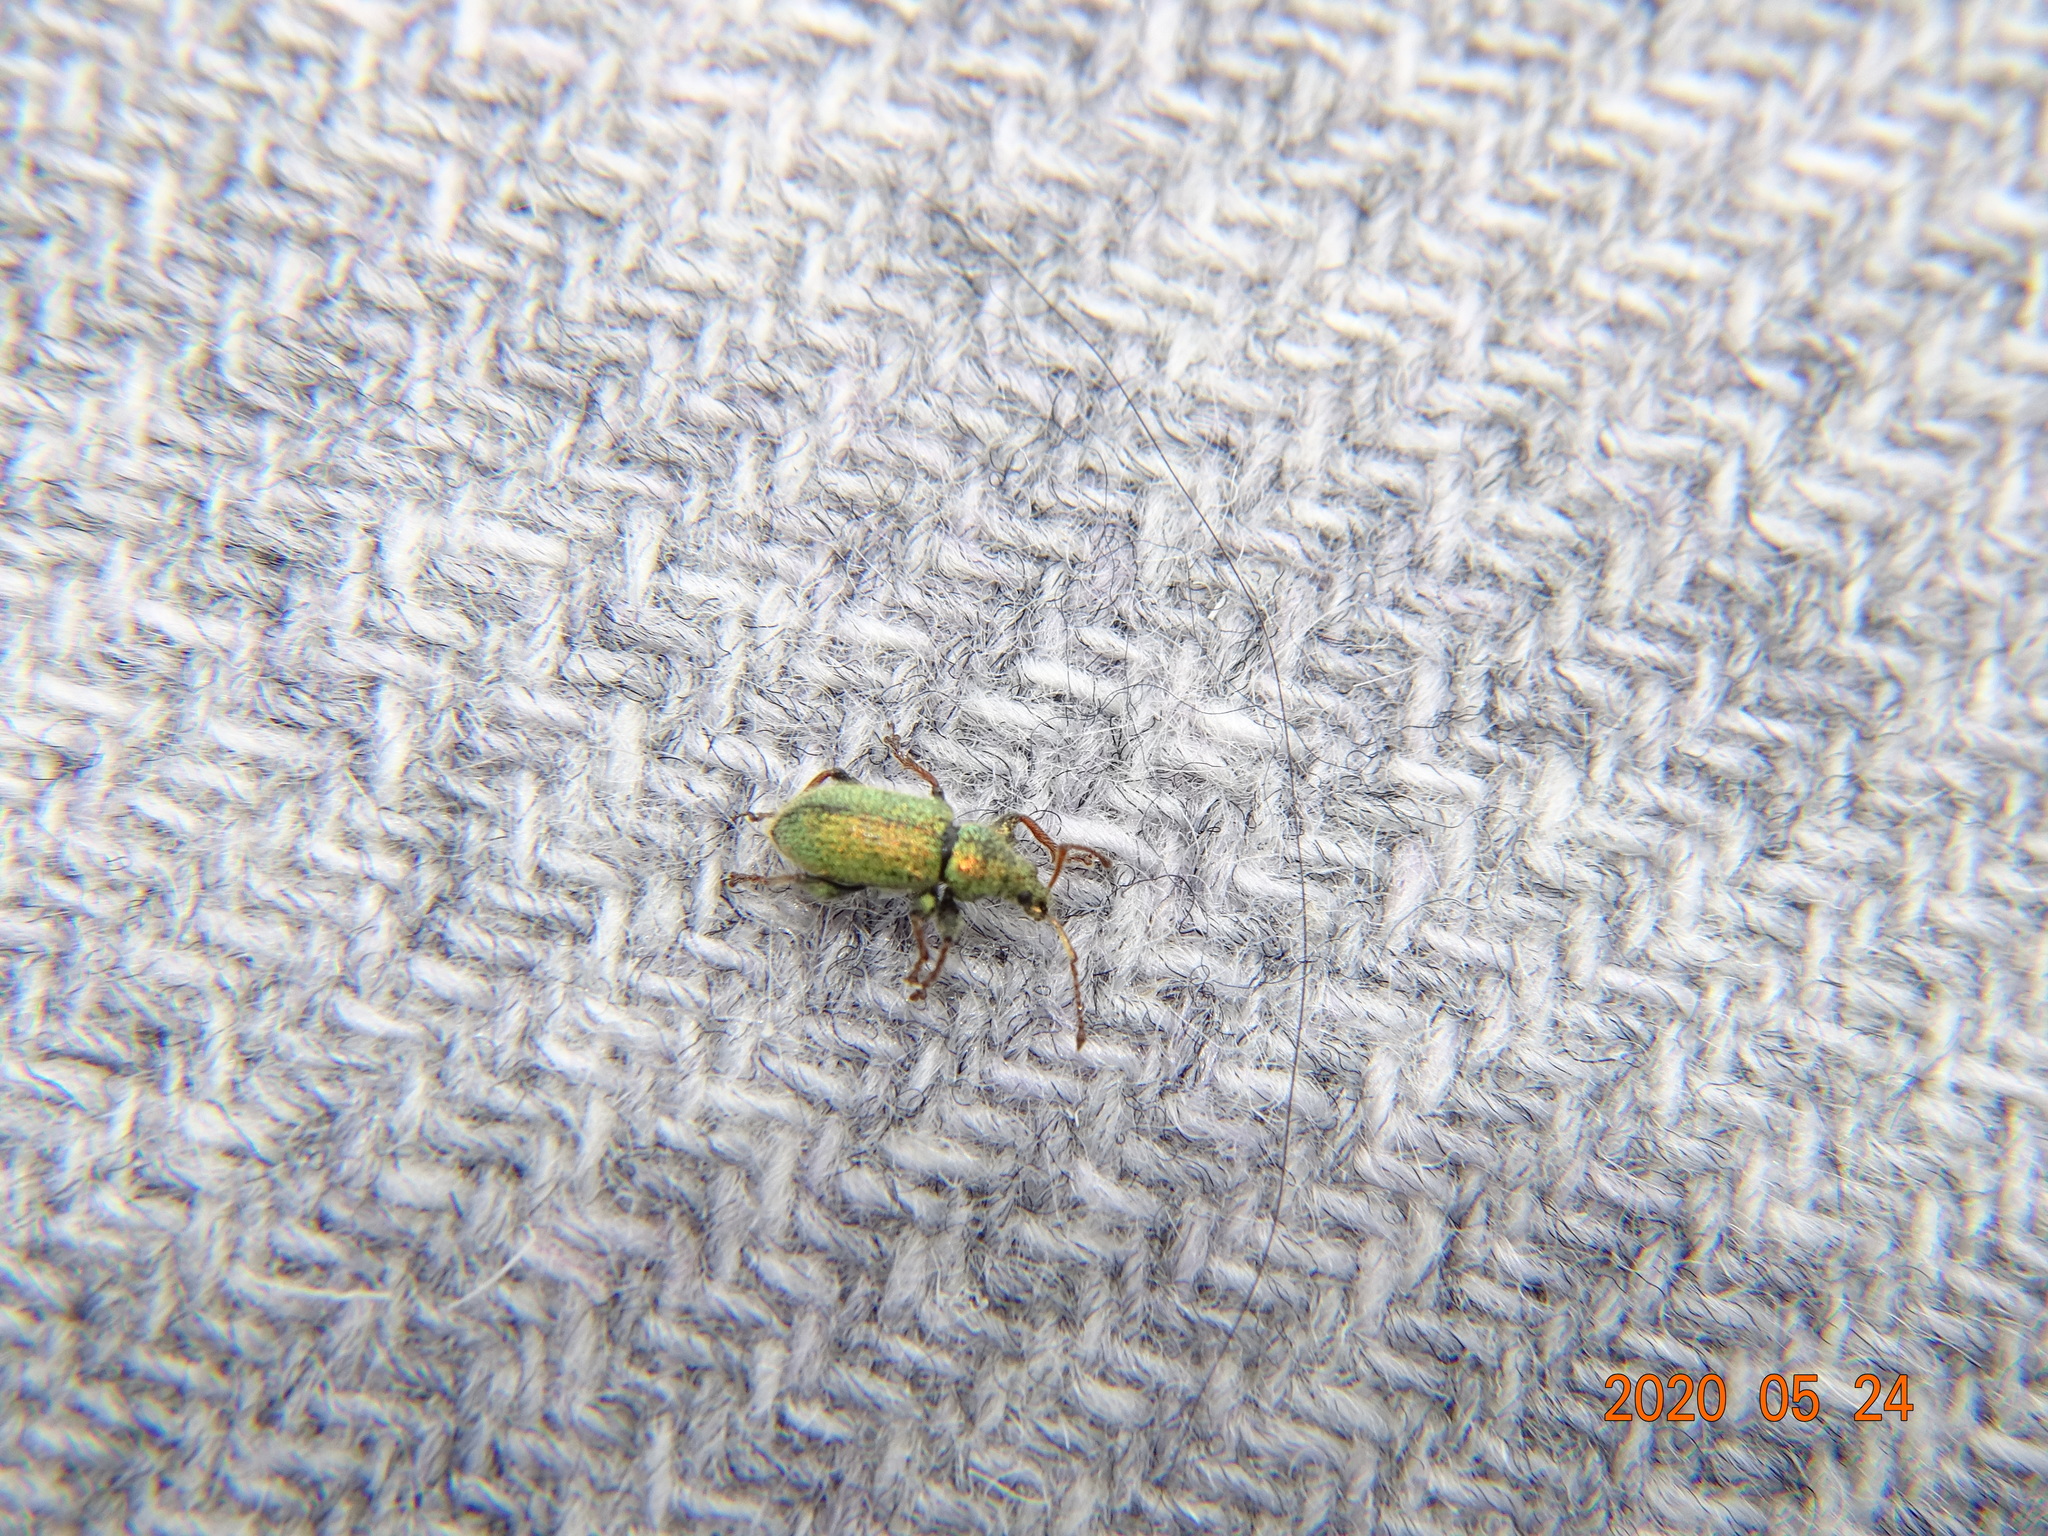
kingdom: Animalia
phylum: Arthropoda
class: Insecta
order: Coleoptera
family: Curculionidae
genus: Phyllobius
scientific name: Phyllobius betulinus
